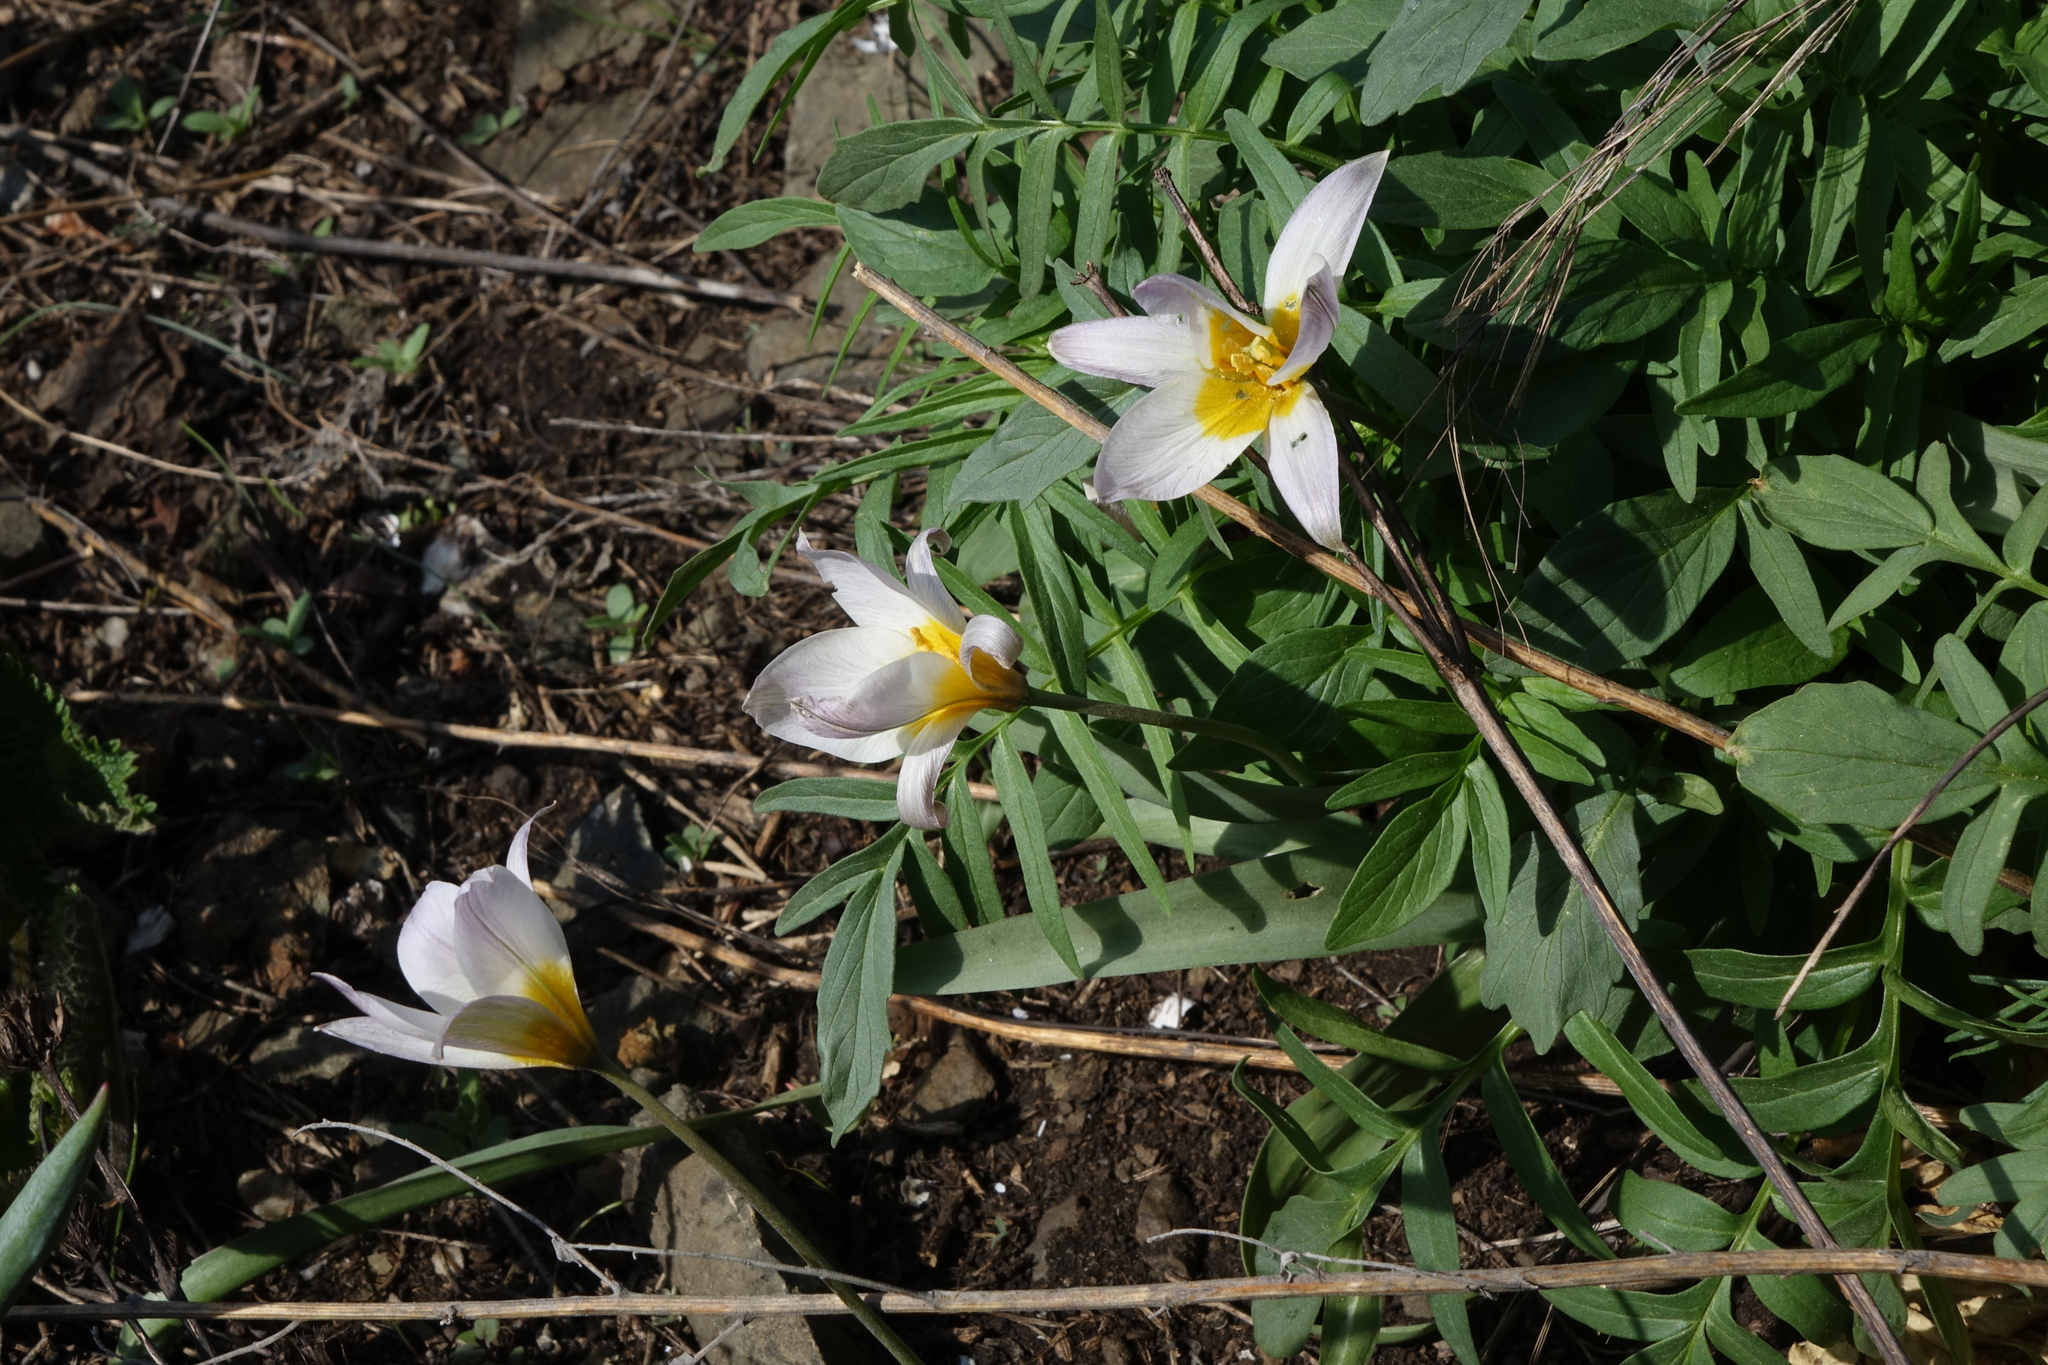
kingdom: Plantae
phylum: Tracheophyta
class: Liliopsida
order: Liliales
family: Liliaceae
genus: Tulipa
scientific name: Tulipa patens
